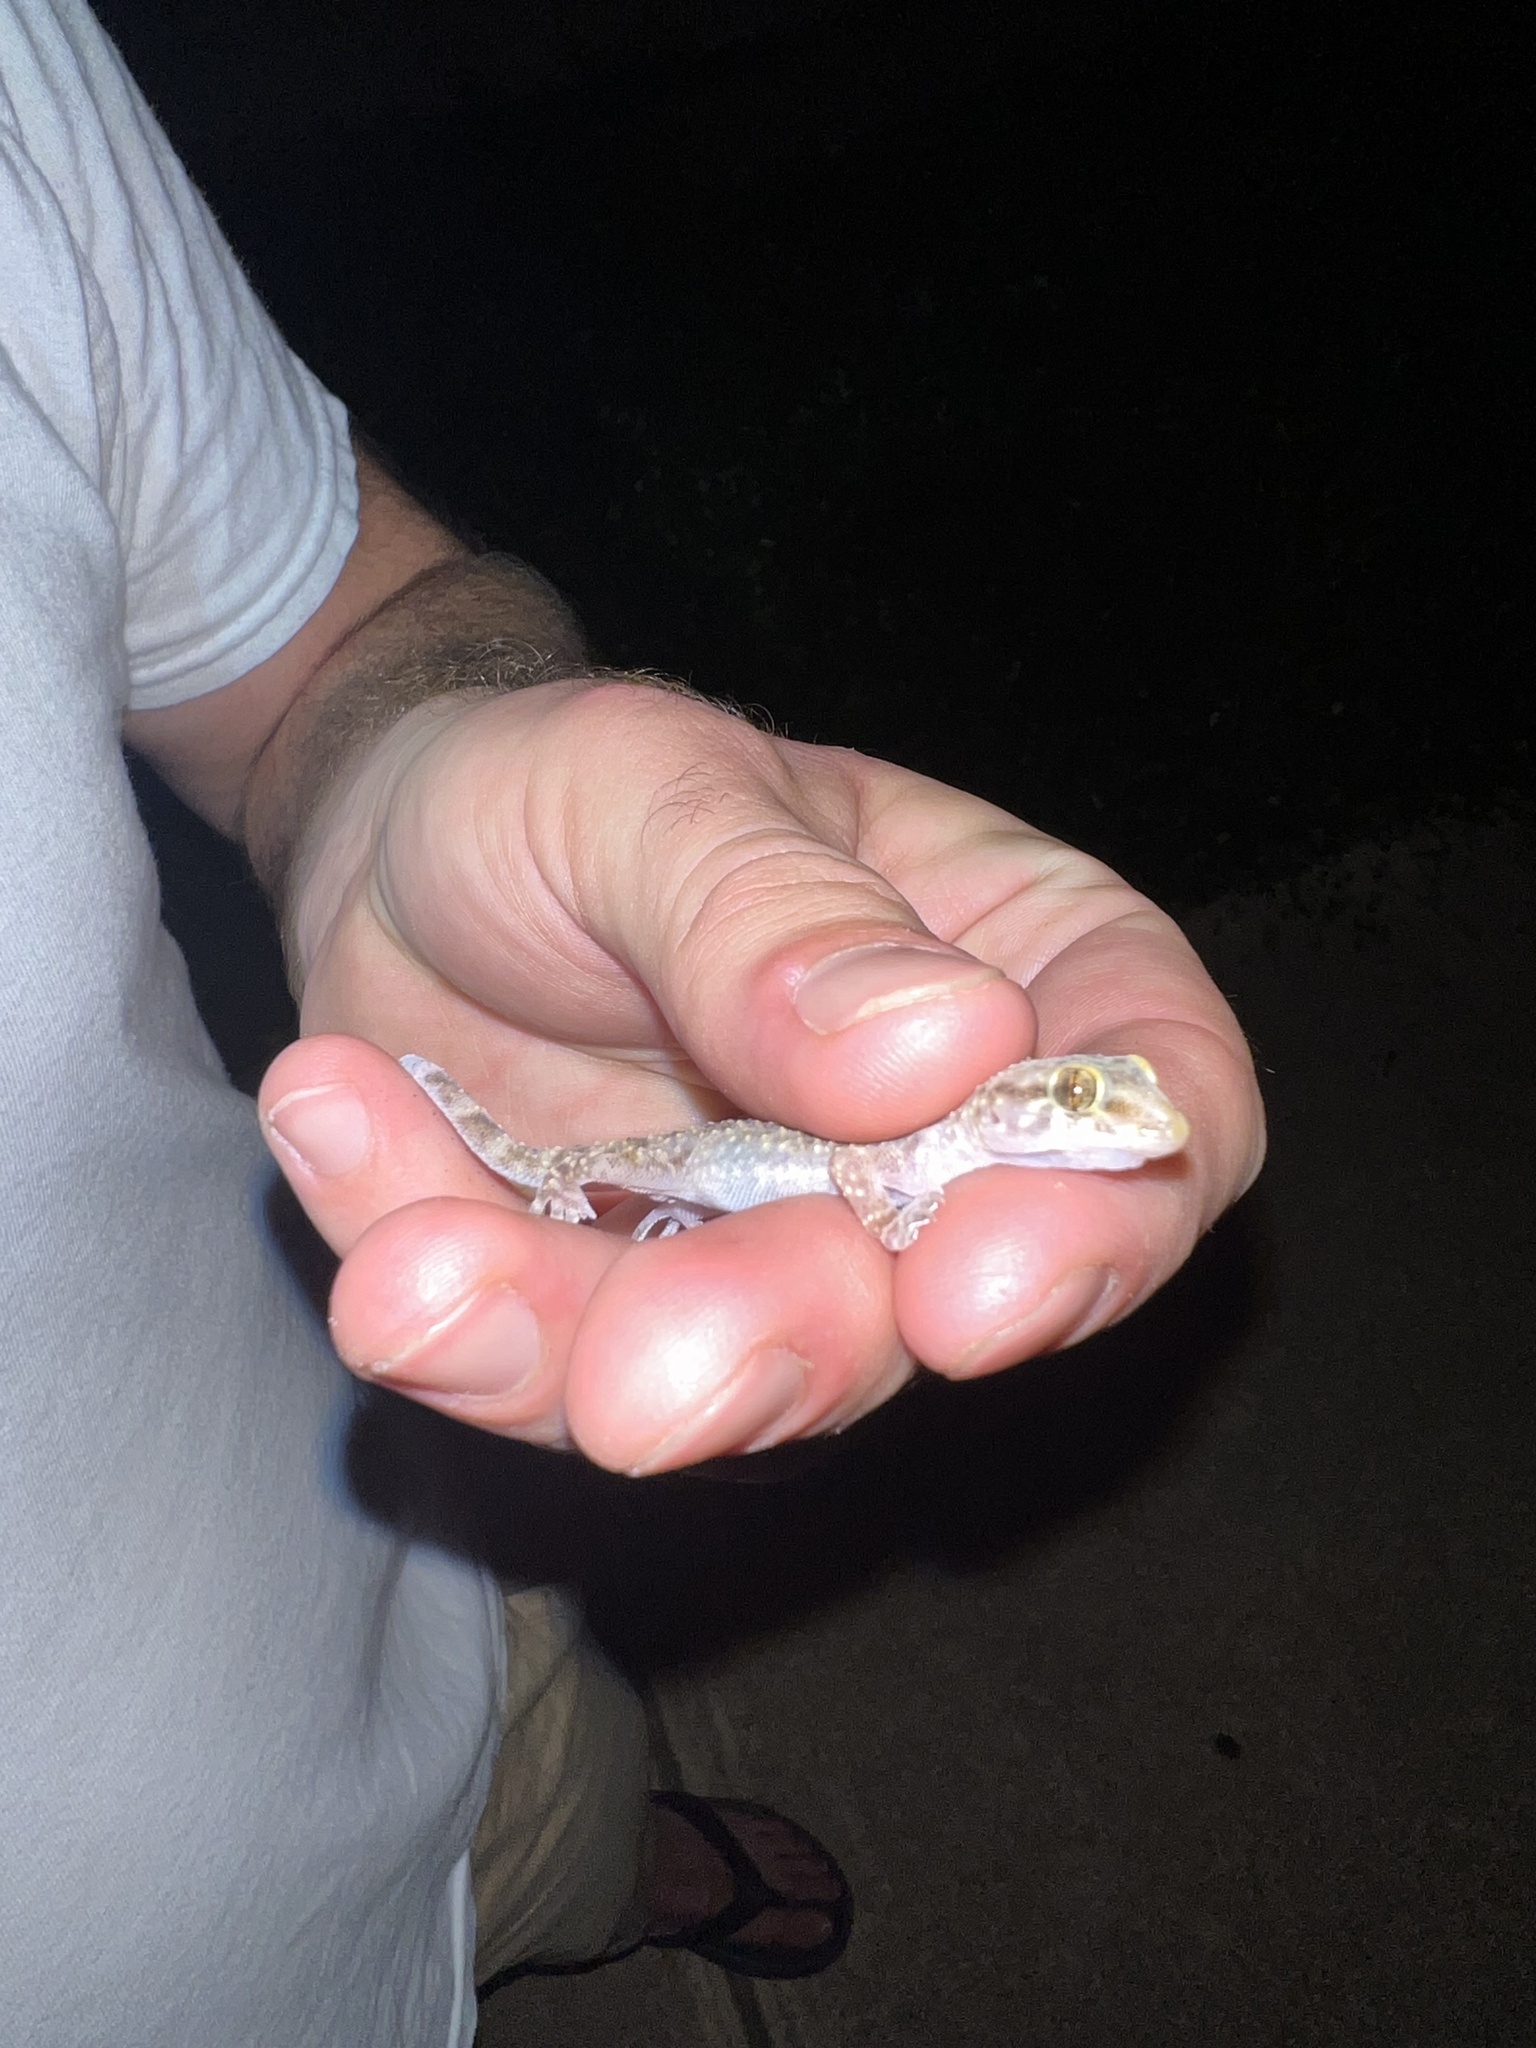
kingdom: Animalia
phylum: Chordata
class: Squamata
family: Gekkonidae
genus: Hemidactylus
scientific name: Hemidactylus turcicus
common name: Turkish gecko
